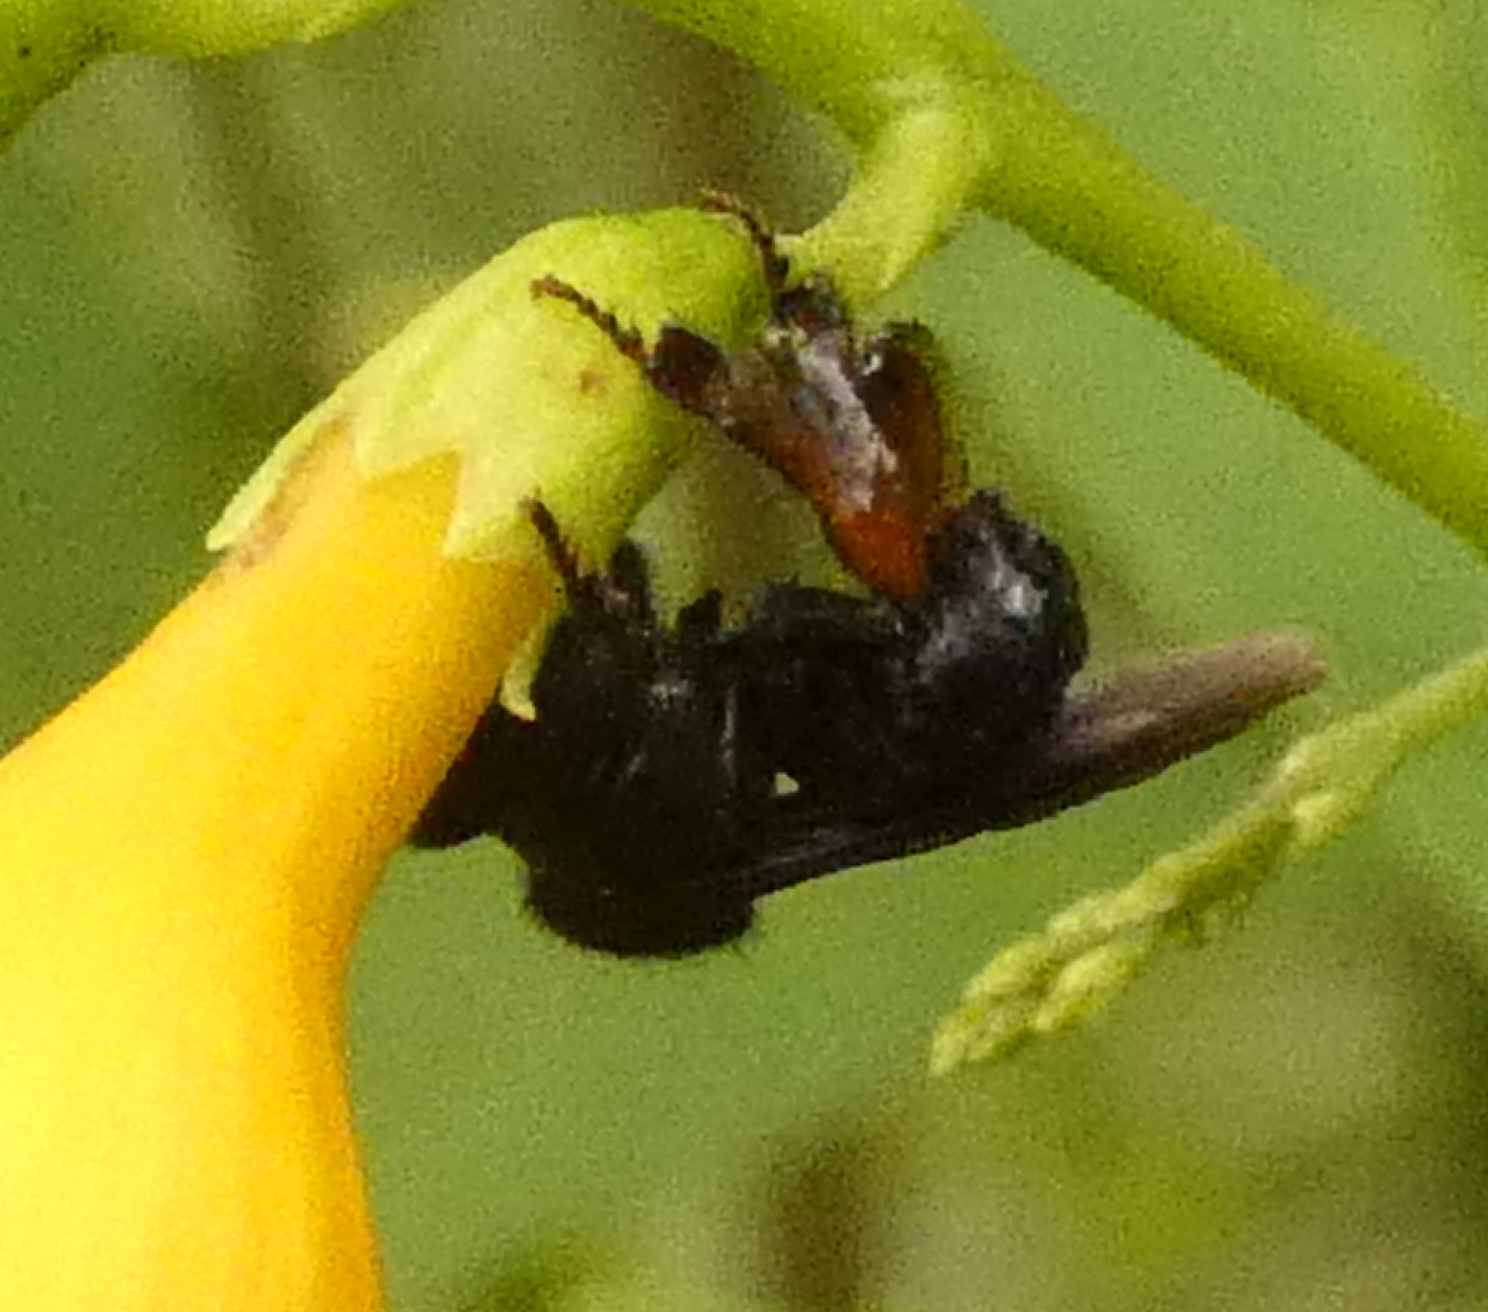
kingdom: Animalia
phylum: Arthropoda
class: Insecta
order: Hymenoptera
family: Apidae
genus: Trigona
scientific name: Trigona spinipes
